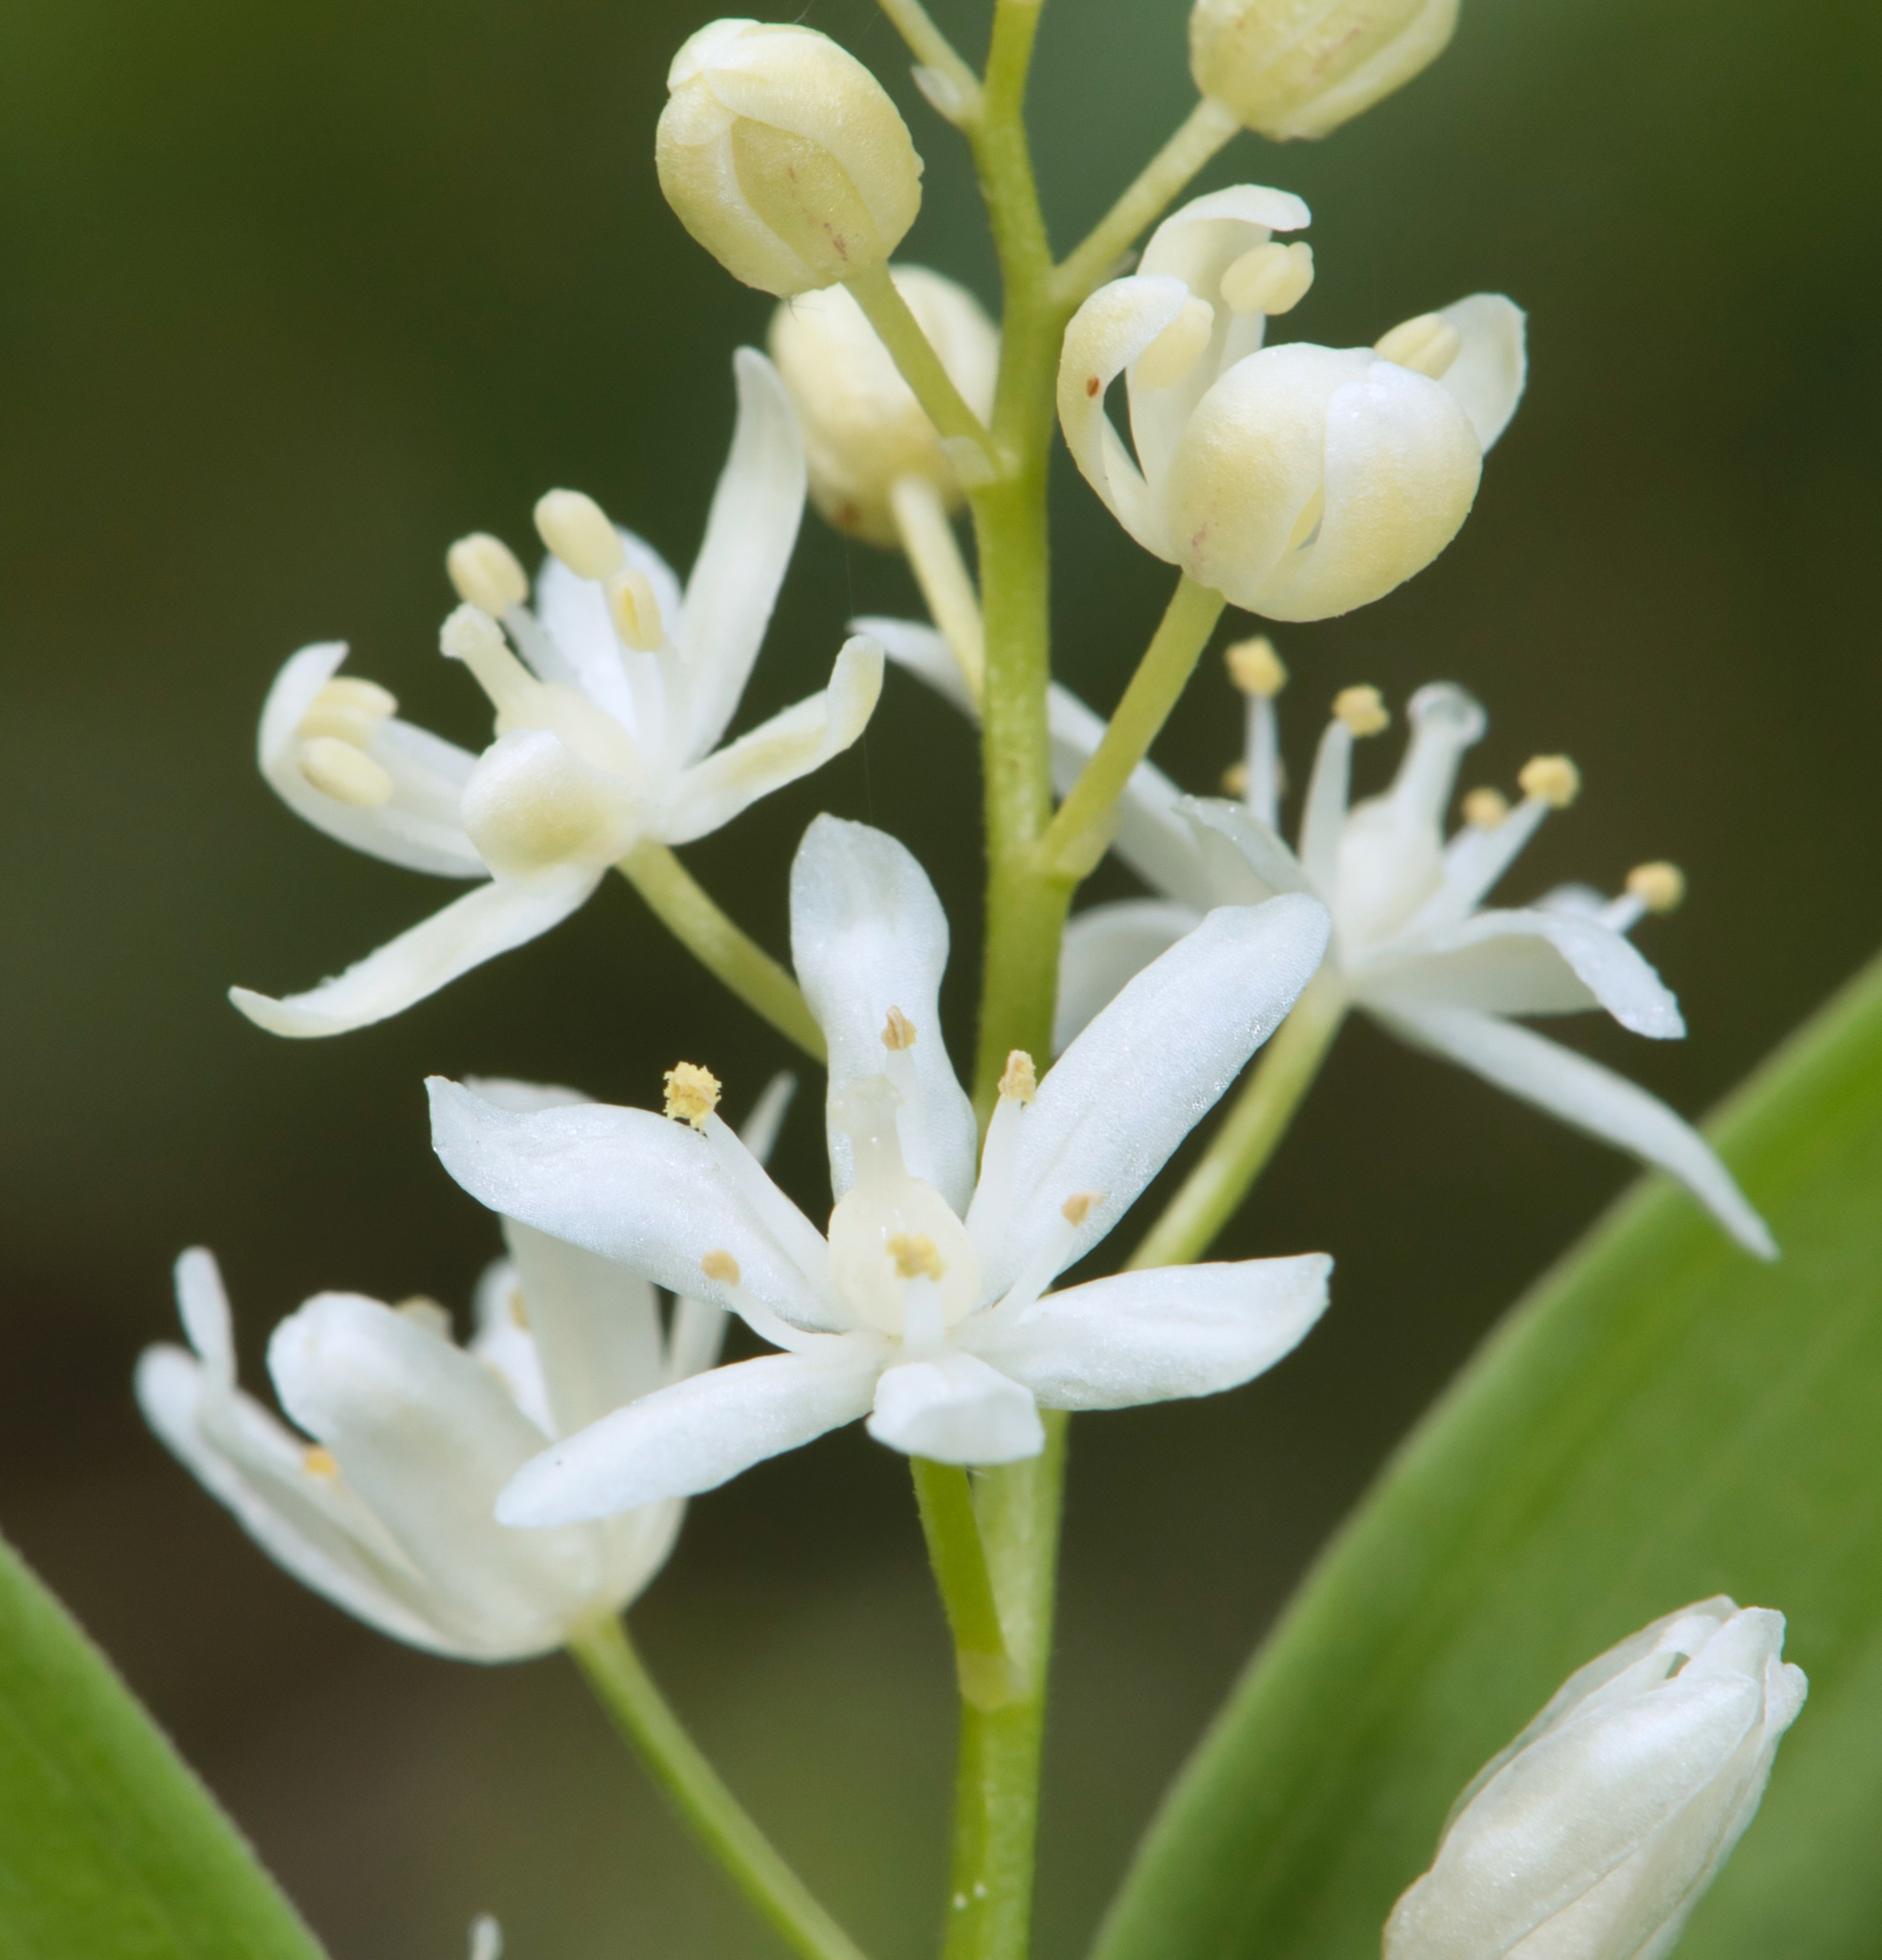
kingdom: Plantae
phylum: Tracheophyta
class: Liliopsida
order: Asparagales
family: Asparagaceae
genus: Maianthemum
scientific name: Maianthemum stellatum
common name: Little false solomon's seal
